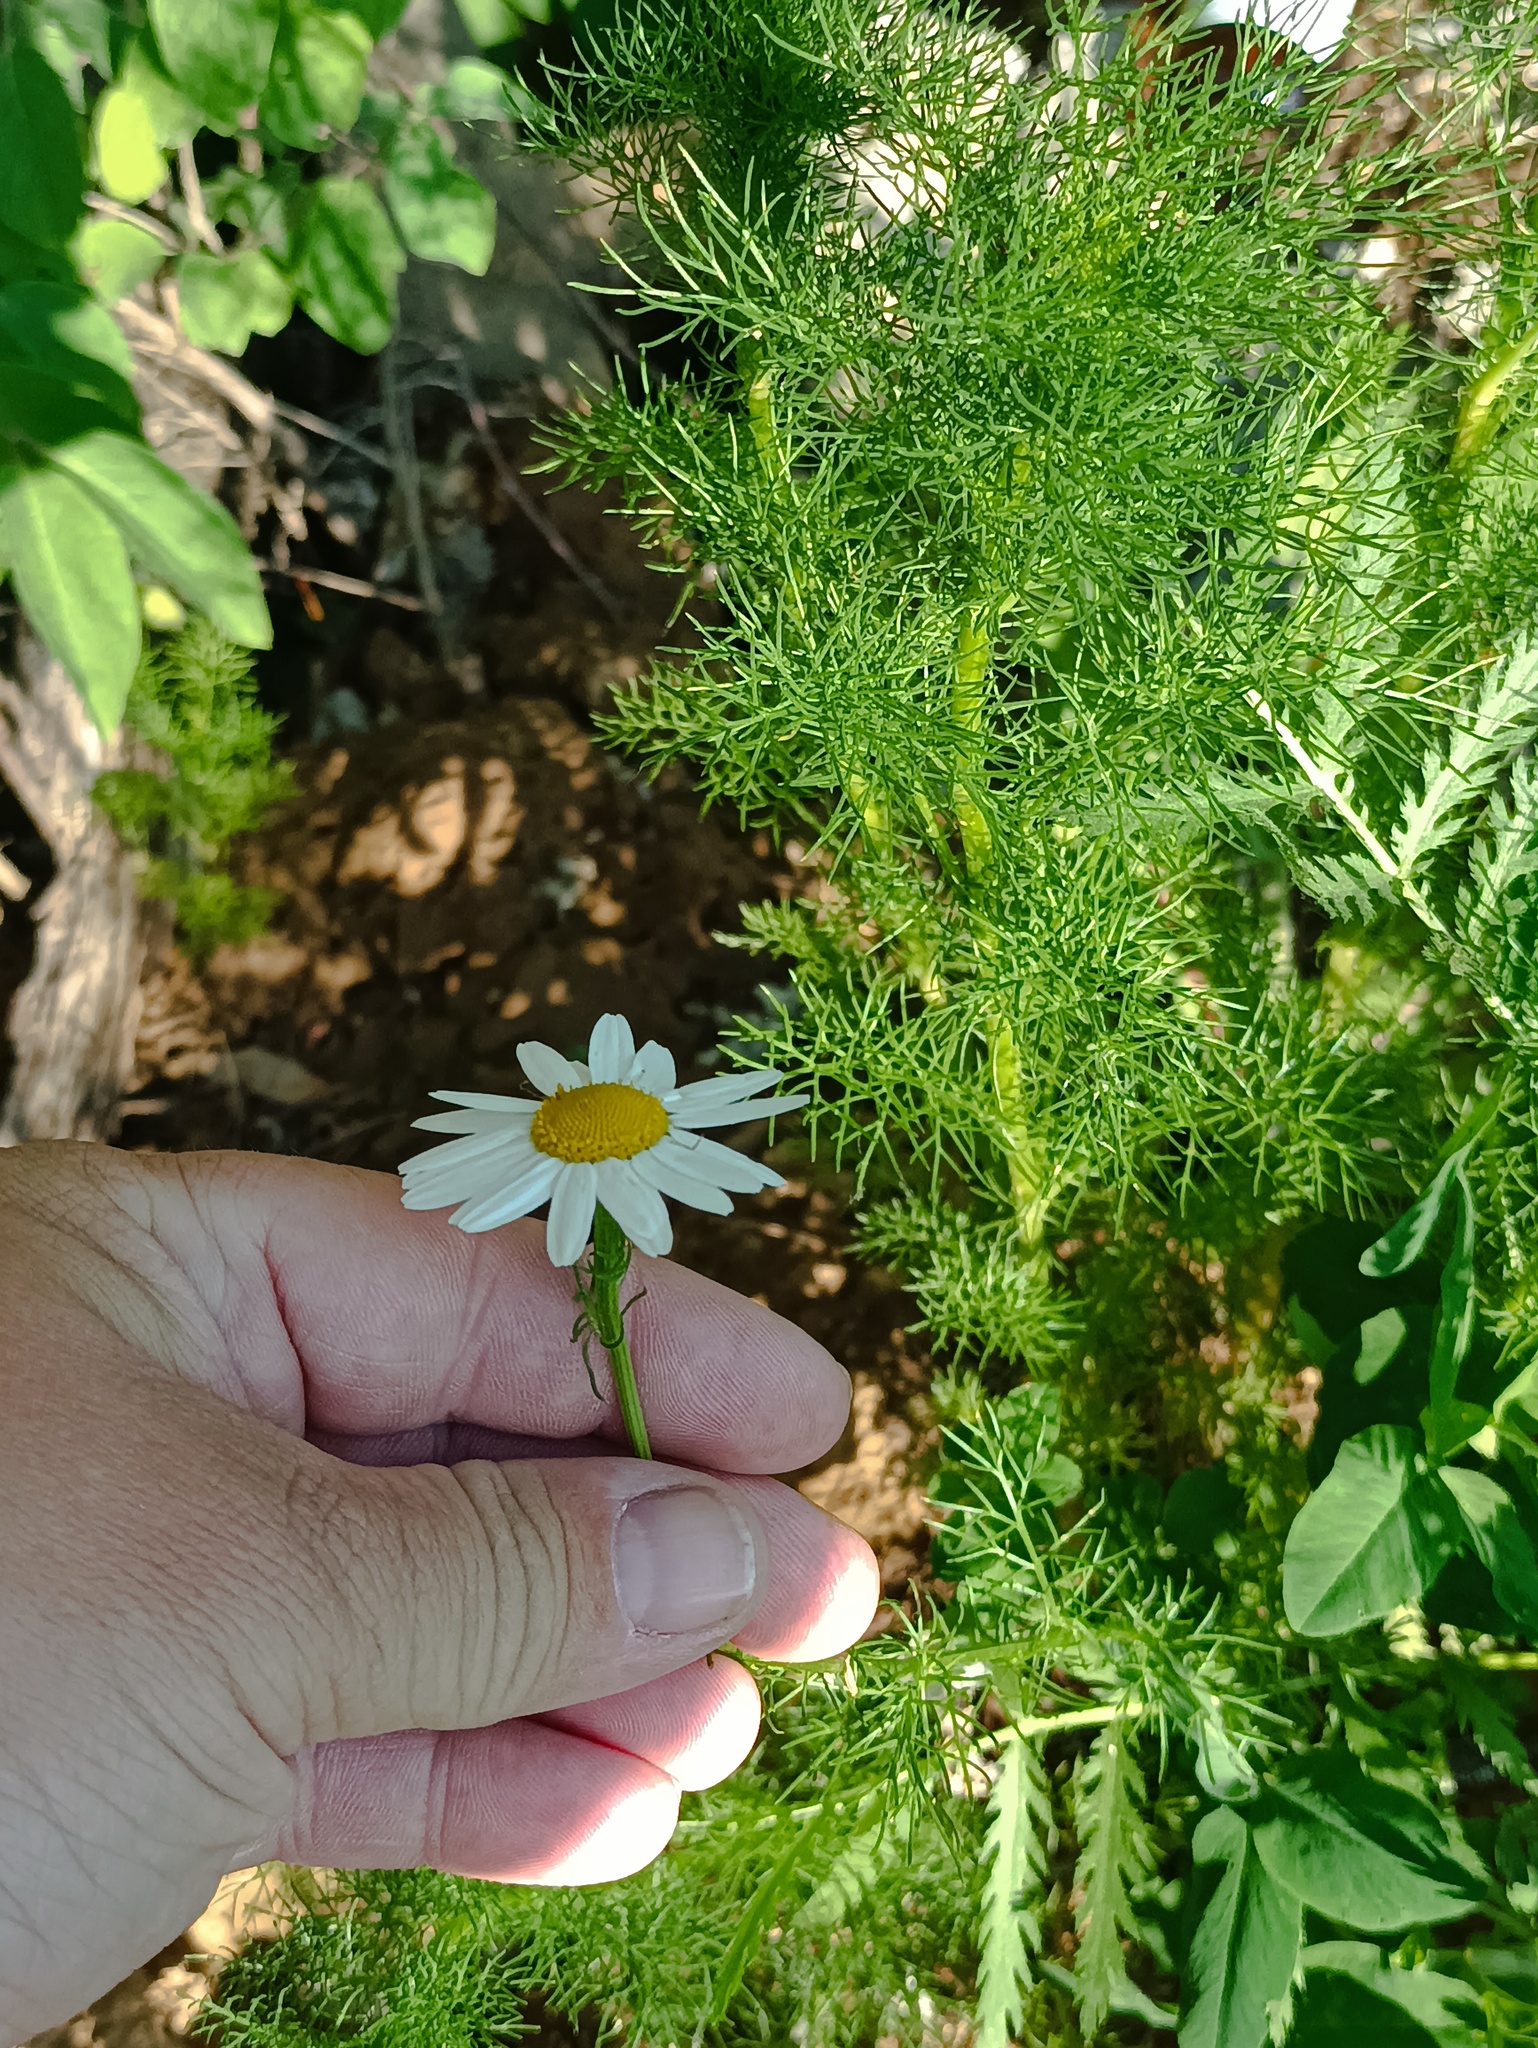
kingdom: Plantae
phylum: Tracheophyta
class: Magnoliopsida
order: Asterales
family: Asteraceae
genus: Tripleurospermum
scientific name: Tripleurospermum inodorum
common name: Scentless mayweed
